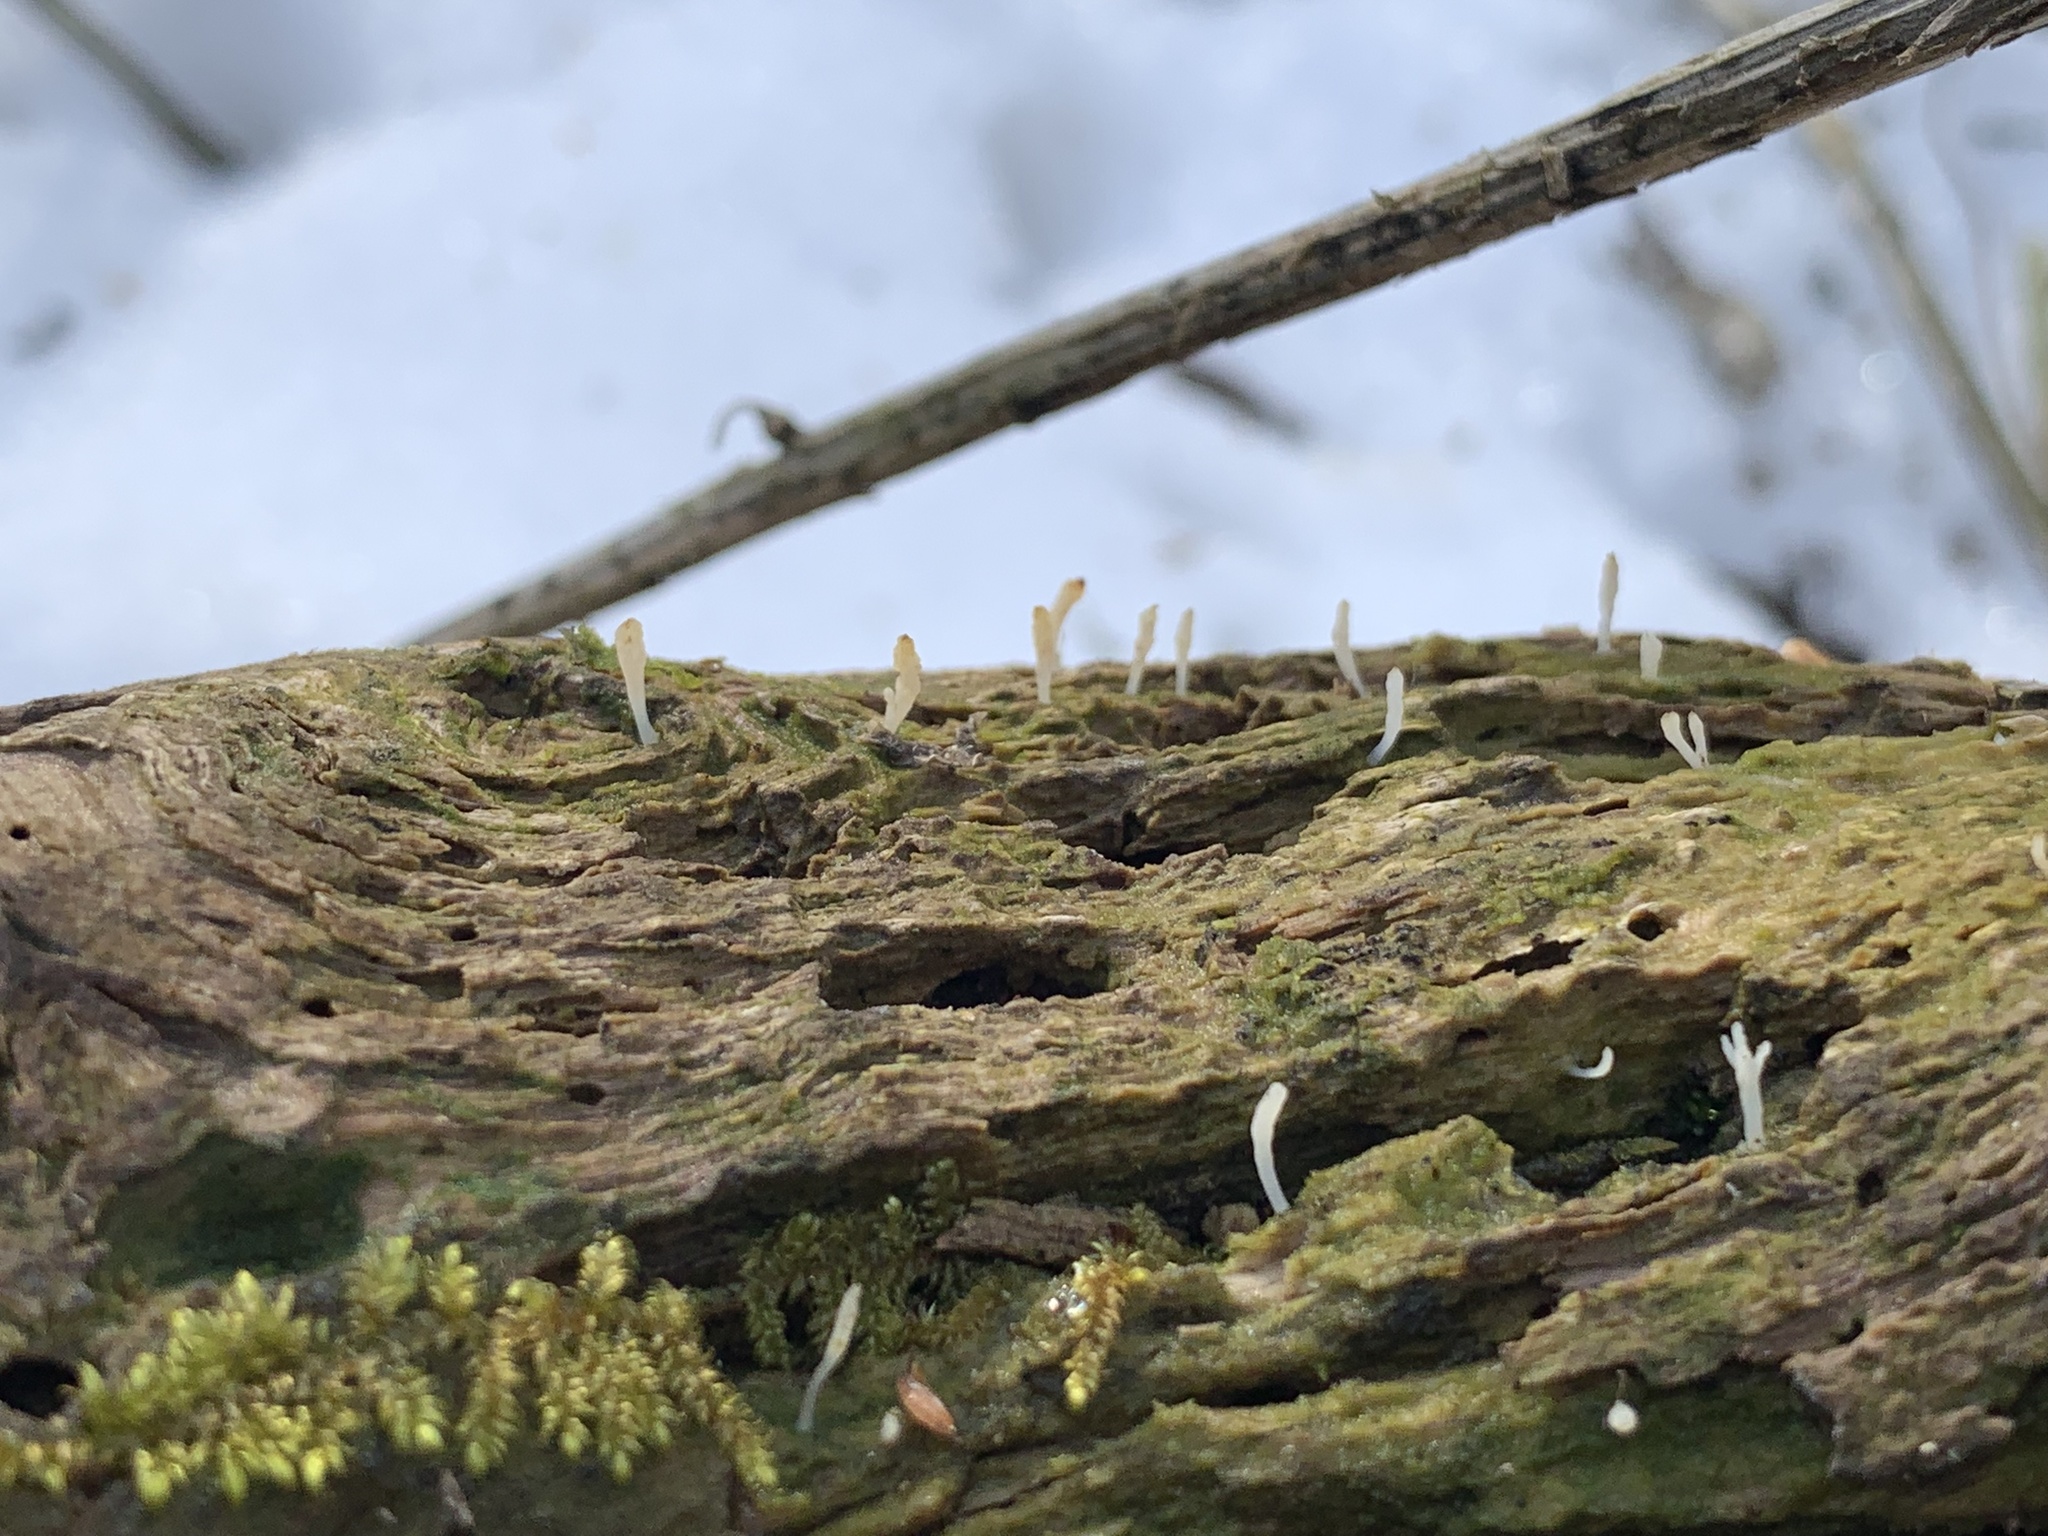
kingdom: Fungi
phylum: Basidiomycota
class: Agaricomycetes
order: Cantharellales
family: Hydnaceae
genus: Multiclavula
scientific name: Multiclavula mucida
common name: White green-algae coral
